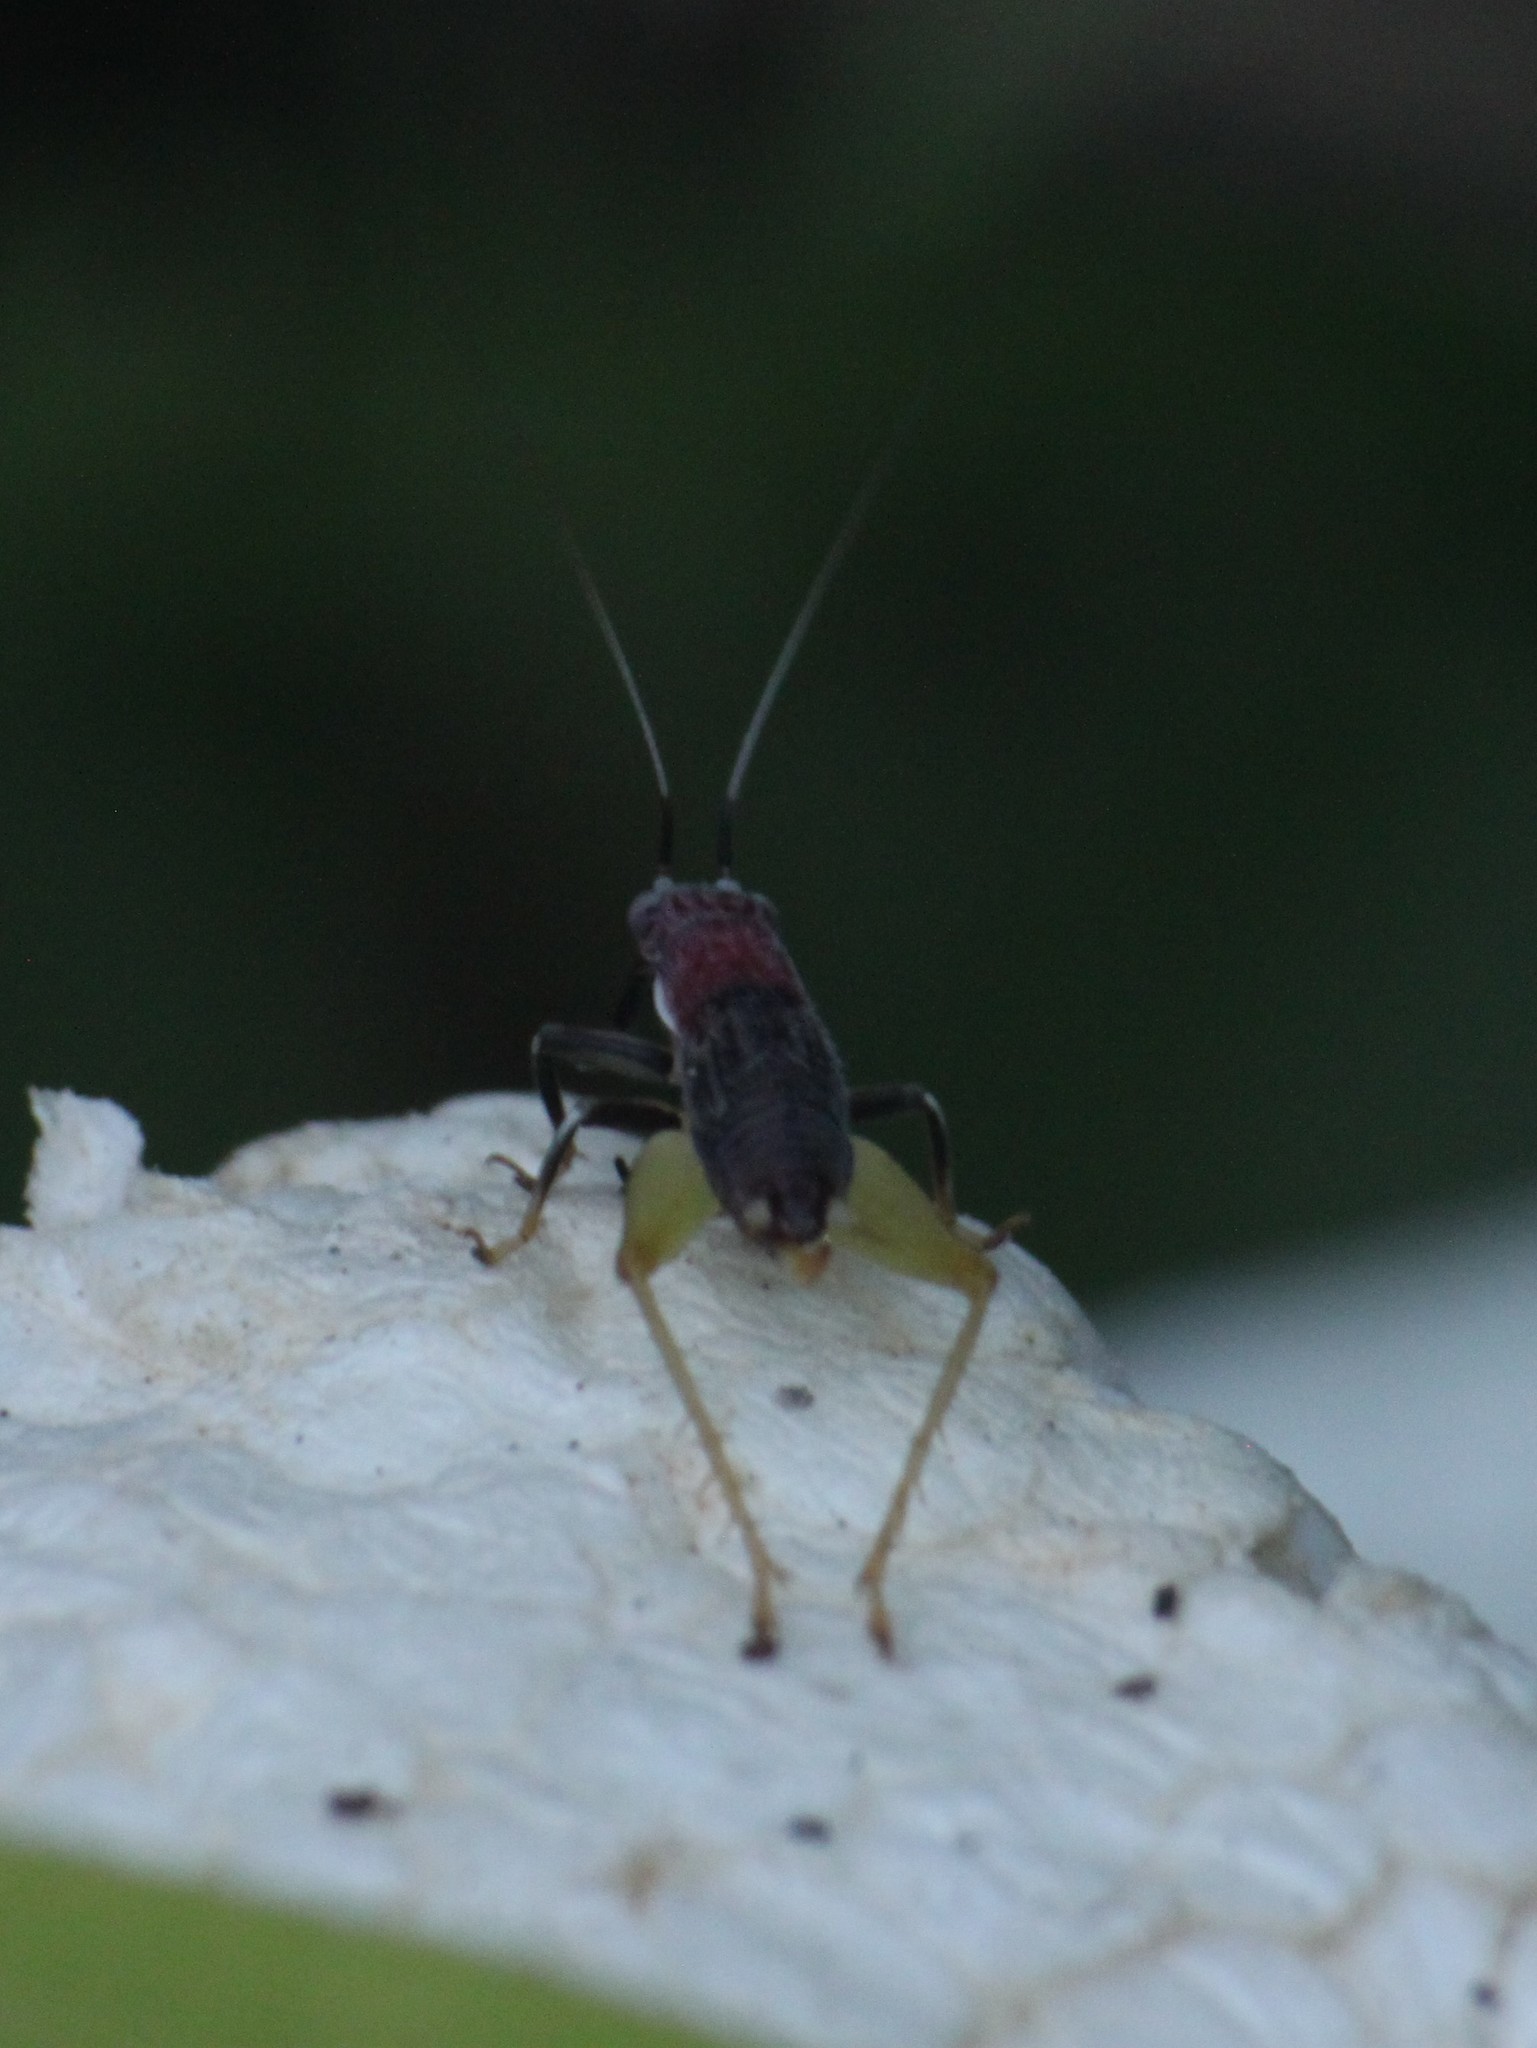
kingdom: Animalia
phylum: Arthropoda
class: Insecta
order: Orthoptera
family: Trigonidiidae
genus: Phyllopalpus
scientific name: Phyllopalpus pulchellus
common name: Handsome trig
